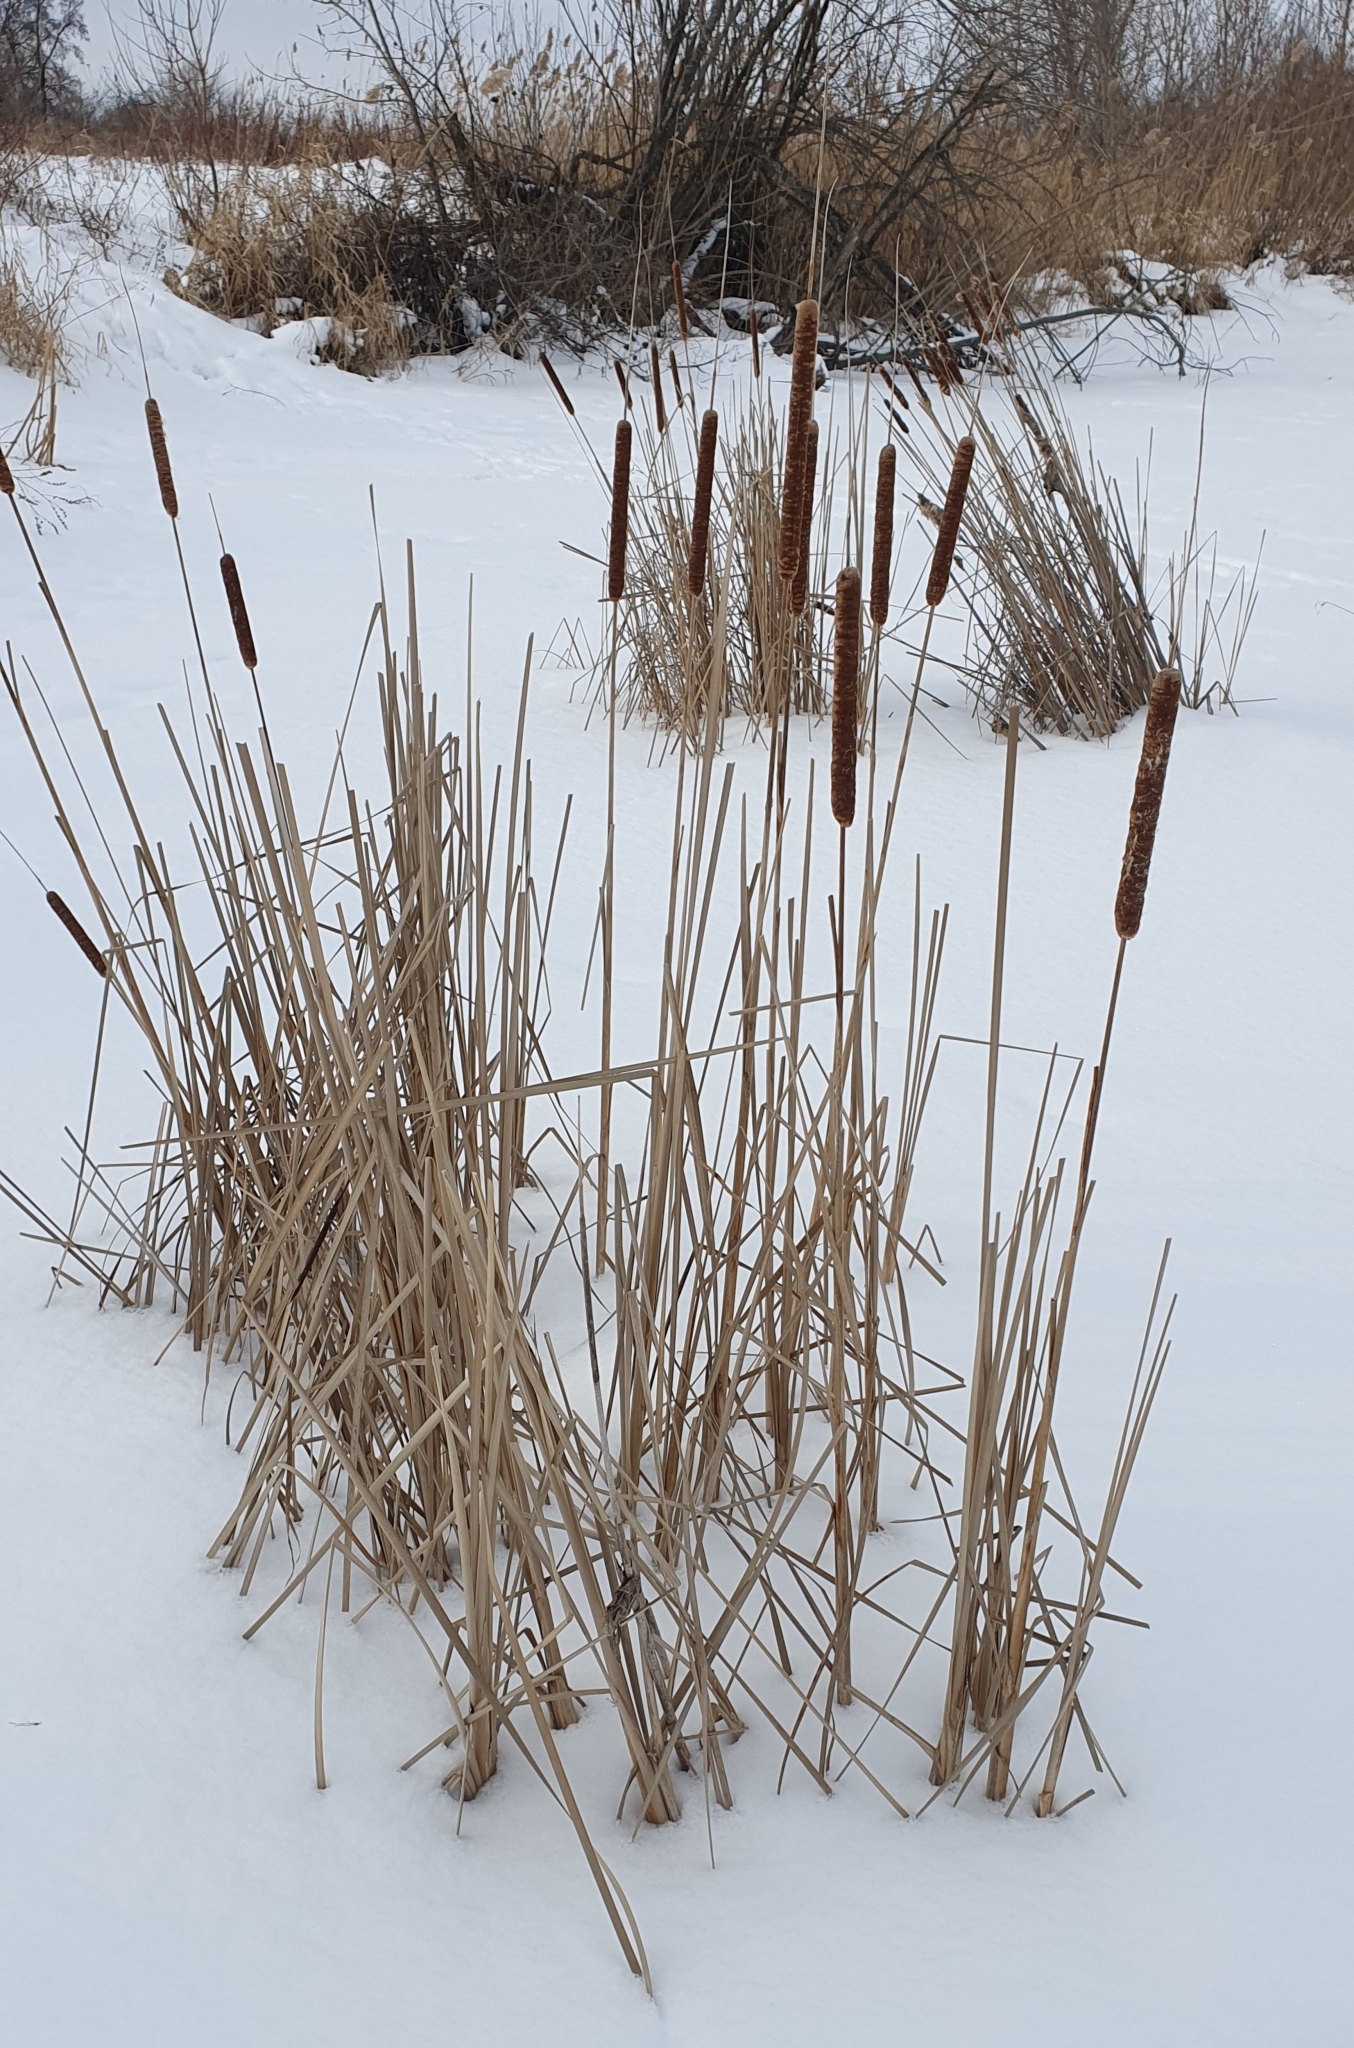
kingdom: Plantae
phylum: Tracheophyta
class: Liliopsida
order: Poales
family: Typhaceae
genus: Typha
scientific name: Typha angustifolia
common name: Lesser bulrush
